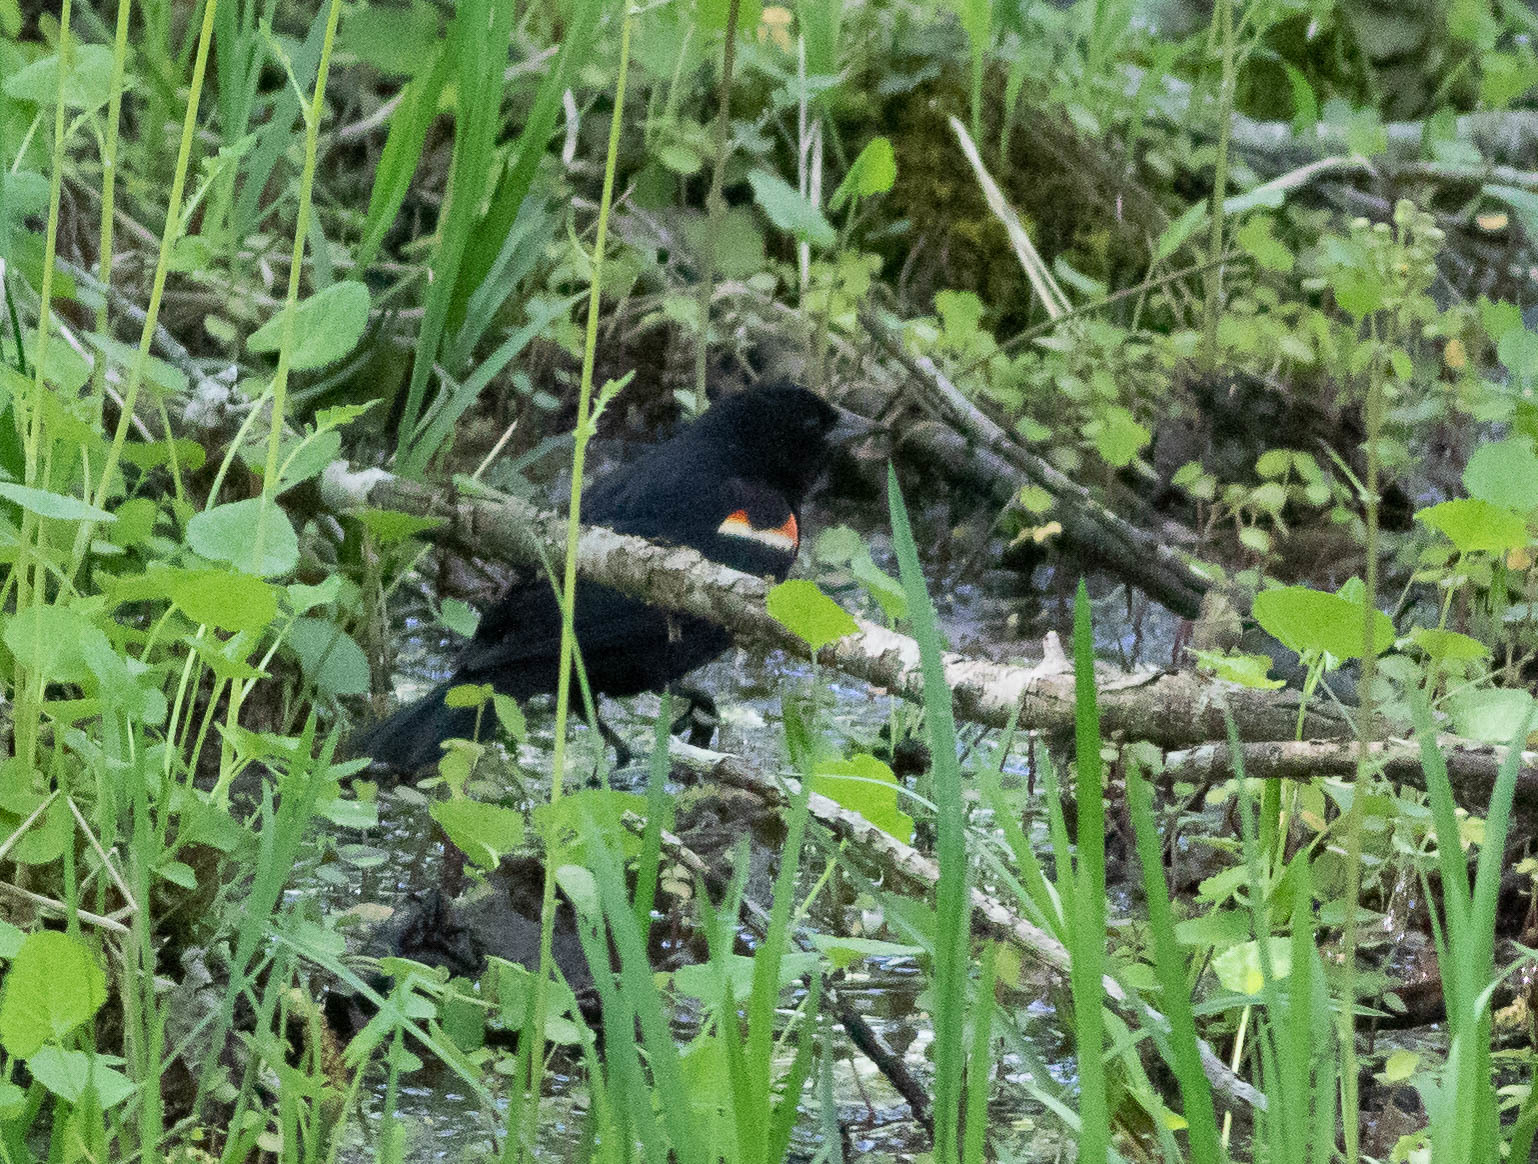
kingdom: Animalia
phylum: Chordata
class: Aves
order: Passeriformes
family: Icteridae
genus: Agelaius
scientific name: Agelaius phoeniceus
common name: Red-winged blackbird
